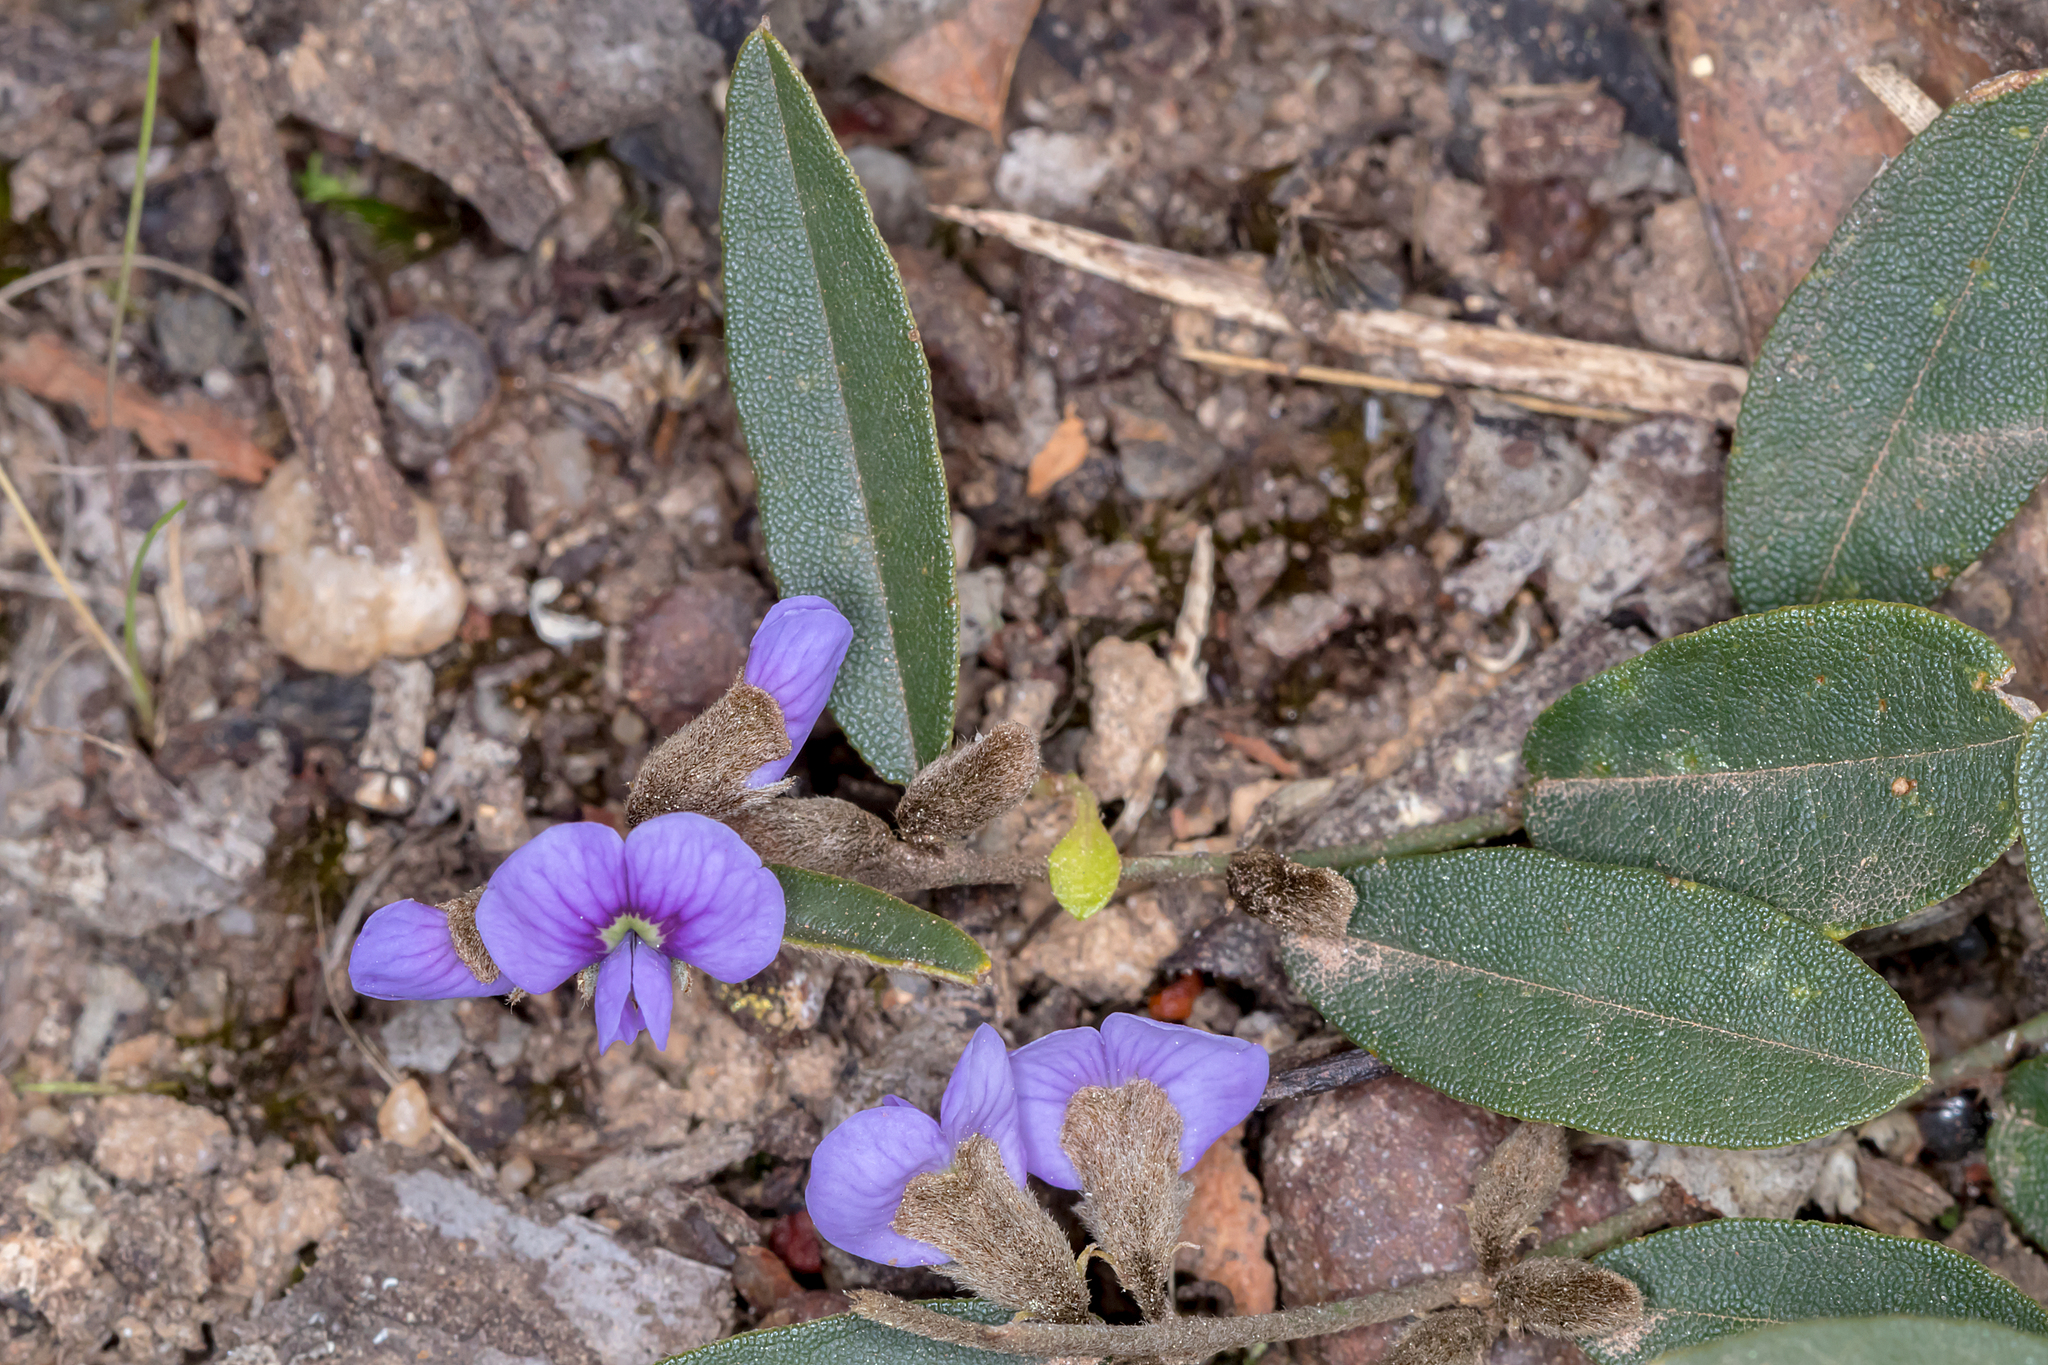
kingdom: Plantae
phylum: Tracheophyta
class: Magnoliopsida
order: Fabales
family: Fabaceae
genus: Hovea
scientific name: Hovea heterophylla
